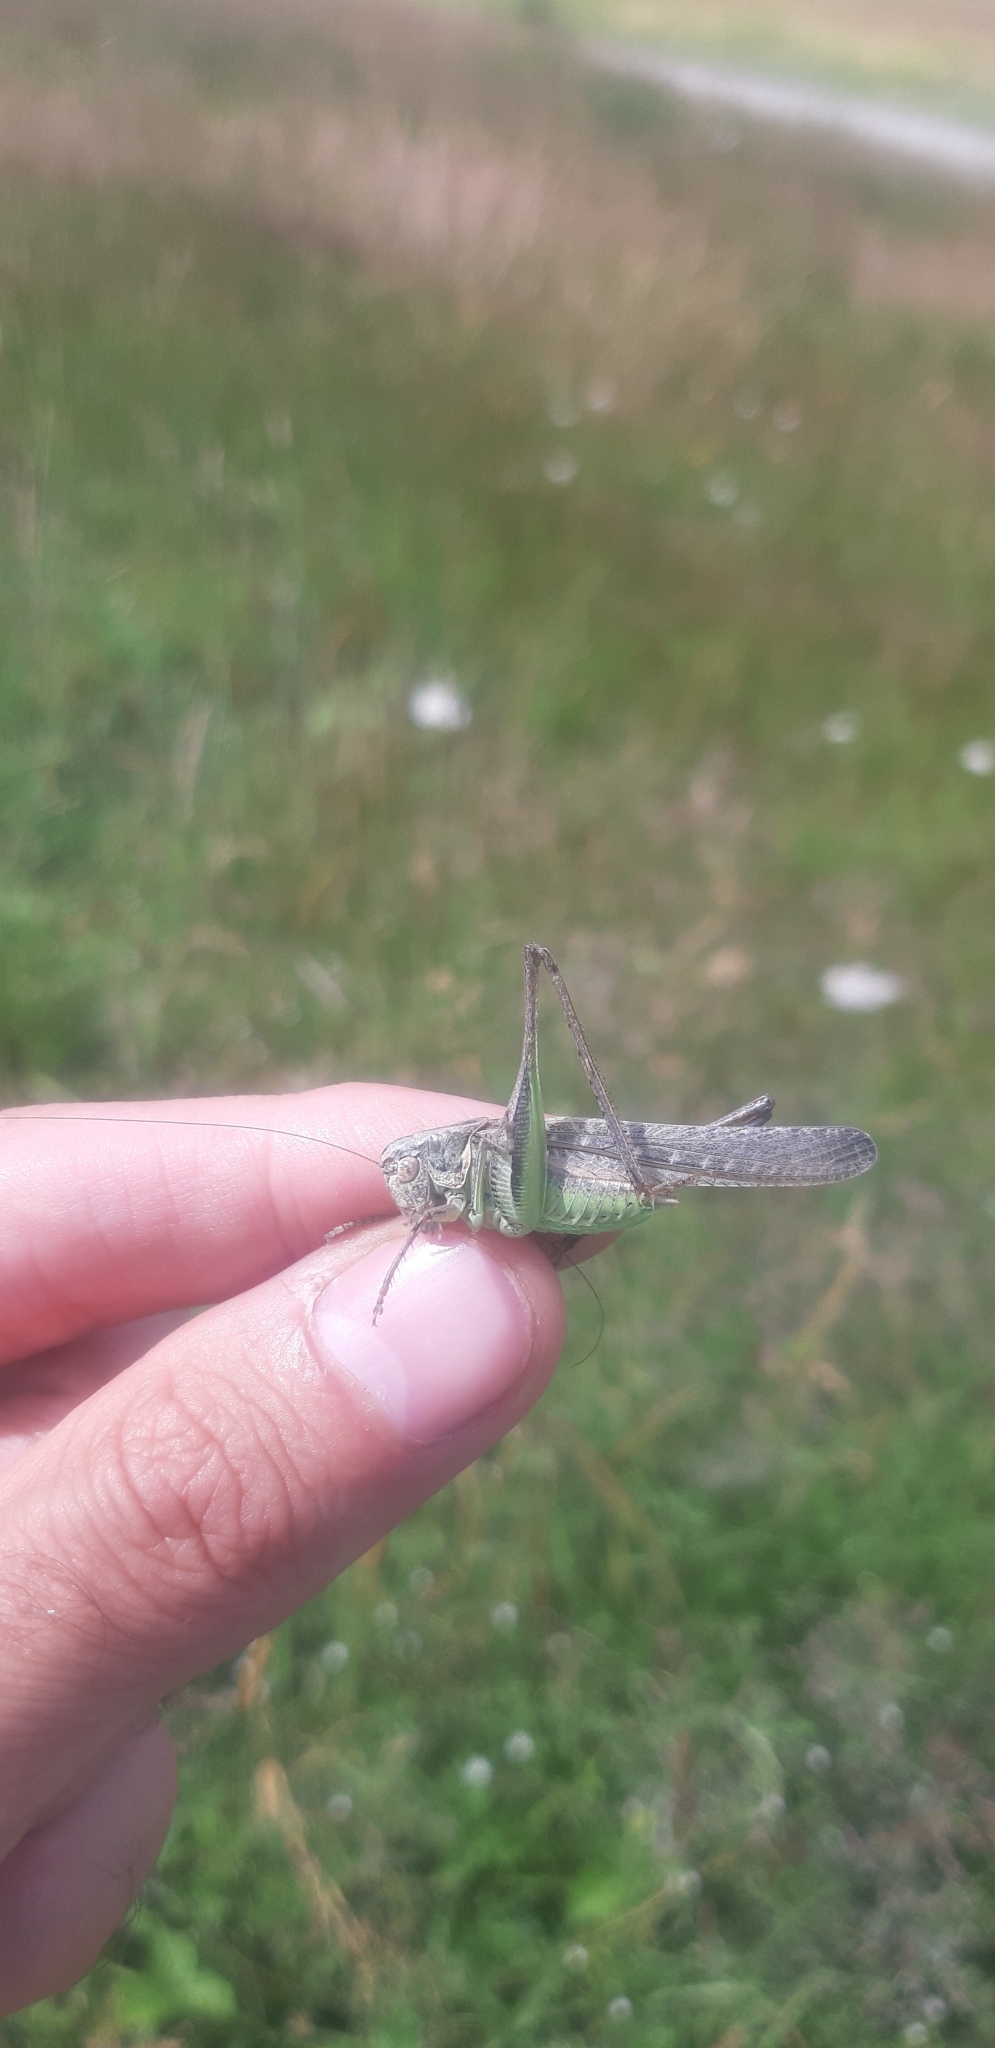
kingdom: Animalia
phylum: Arthropoda
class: Insecta
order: Orthoptera
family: Tettigoniidae
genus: Platycleis
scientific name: Platycleis grisea
